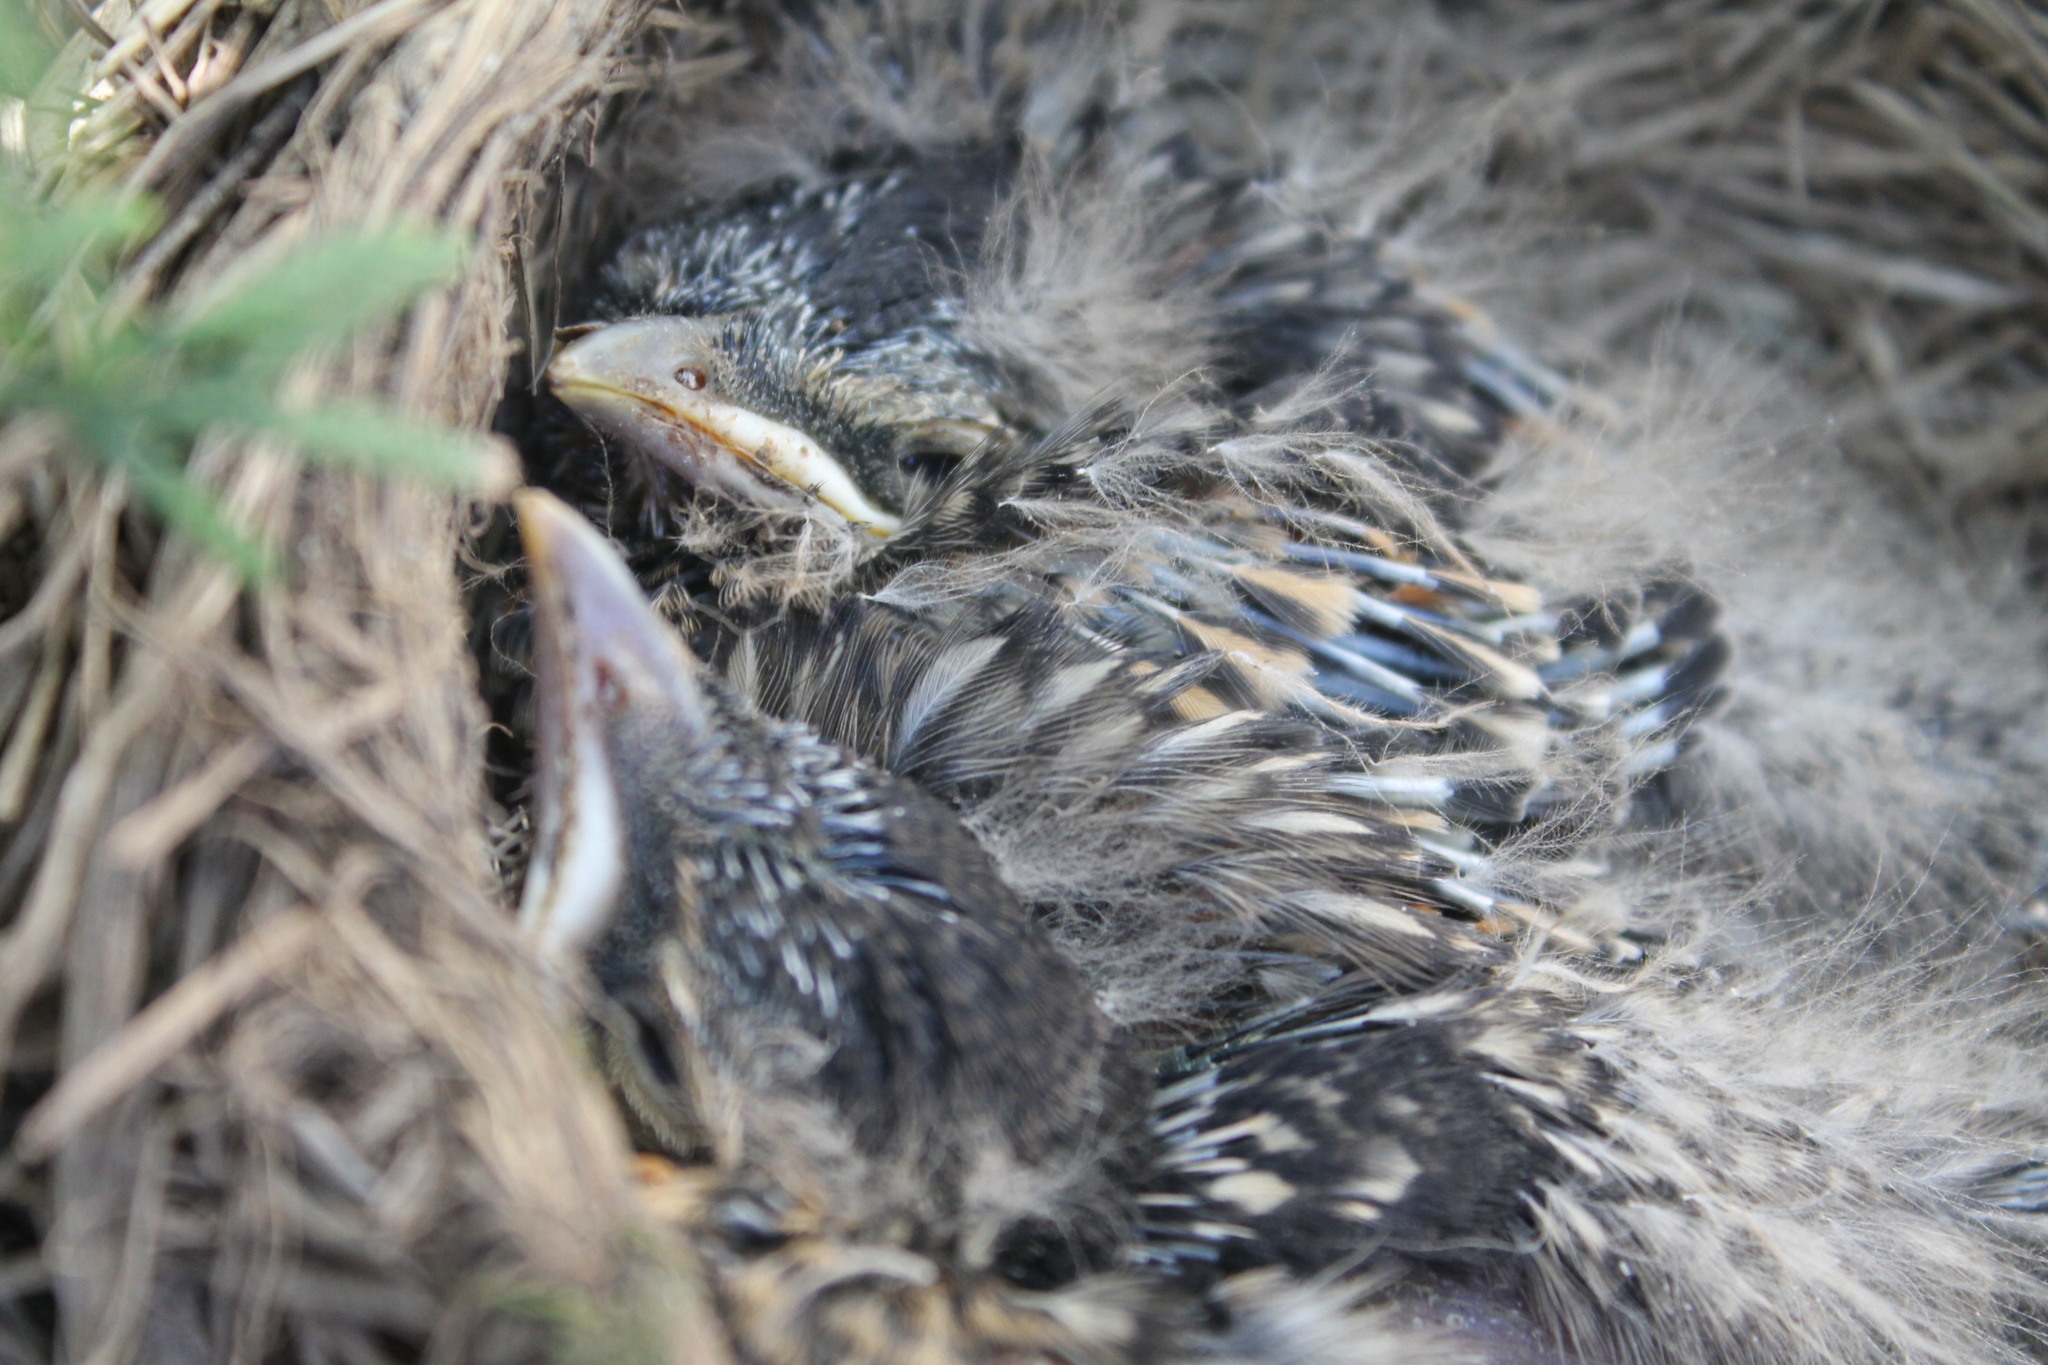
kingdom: Animalia
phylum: Chordata
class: Aves
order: Passeriformes
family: Turdidae
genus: Turdus
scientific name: Turdus migratorius
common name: American robin
